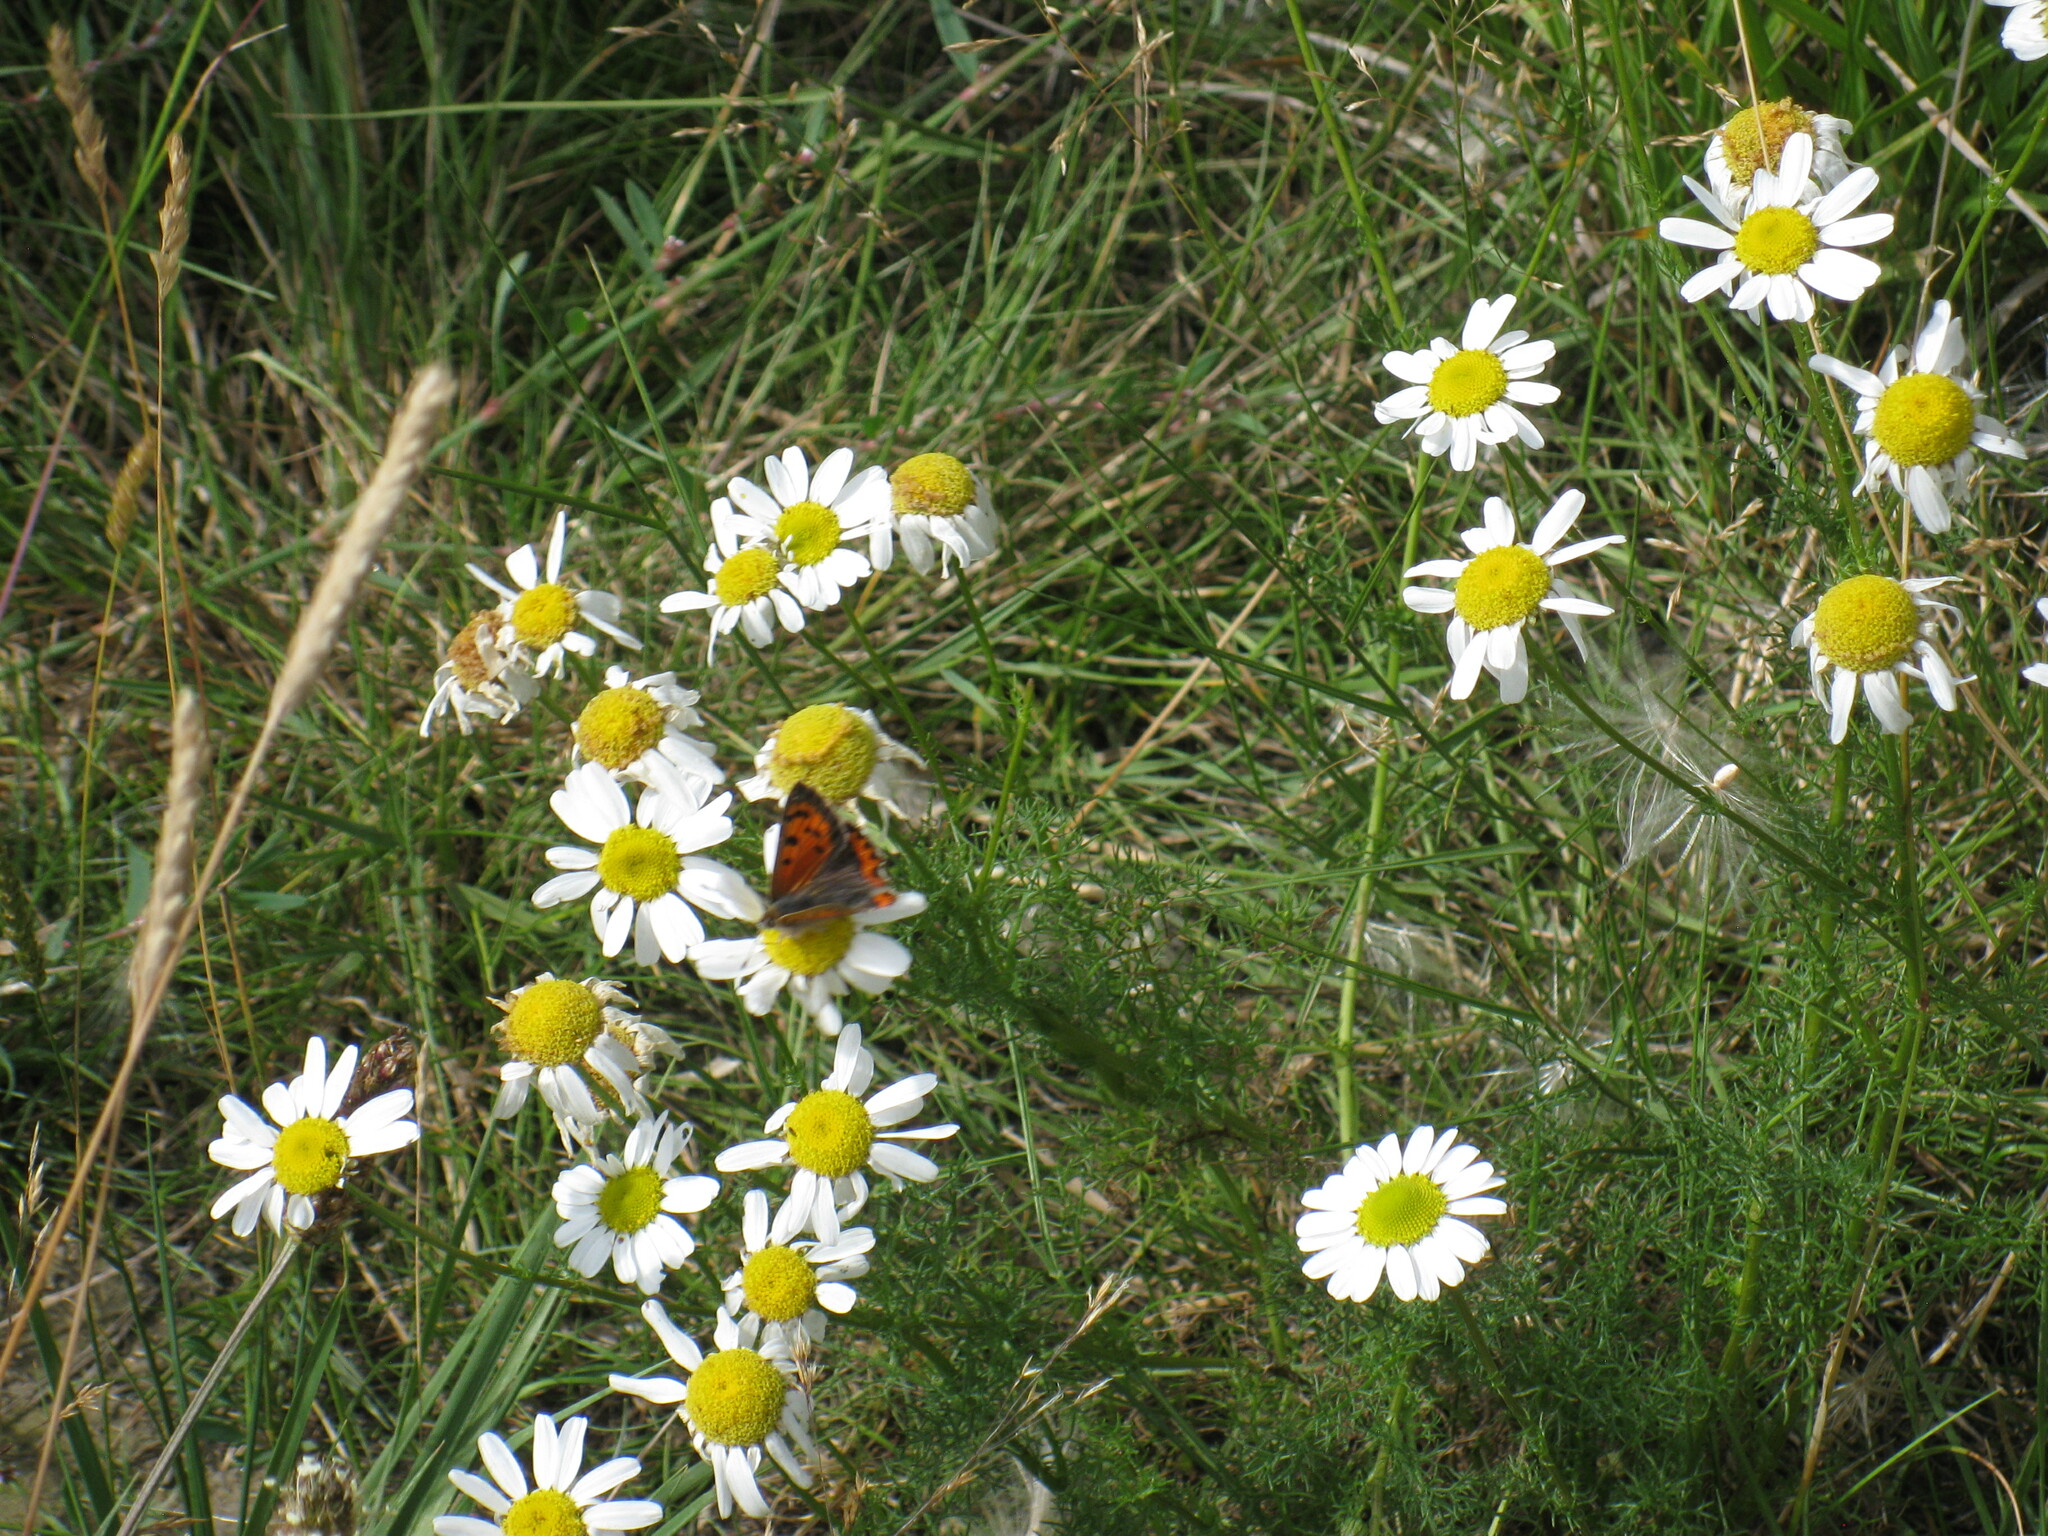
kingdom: Animalia
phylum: Arthropoda
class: Insecta
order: Lepidoptera
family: Lycaenidae
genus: Lycaena
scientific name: Lycaena phlaeas
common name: Small copper
